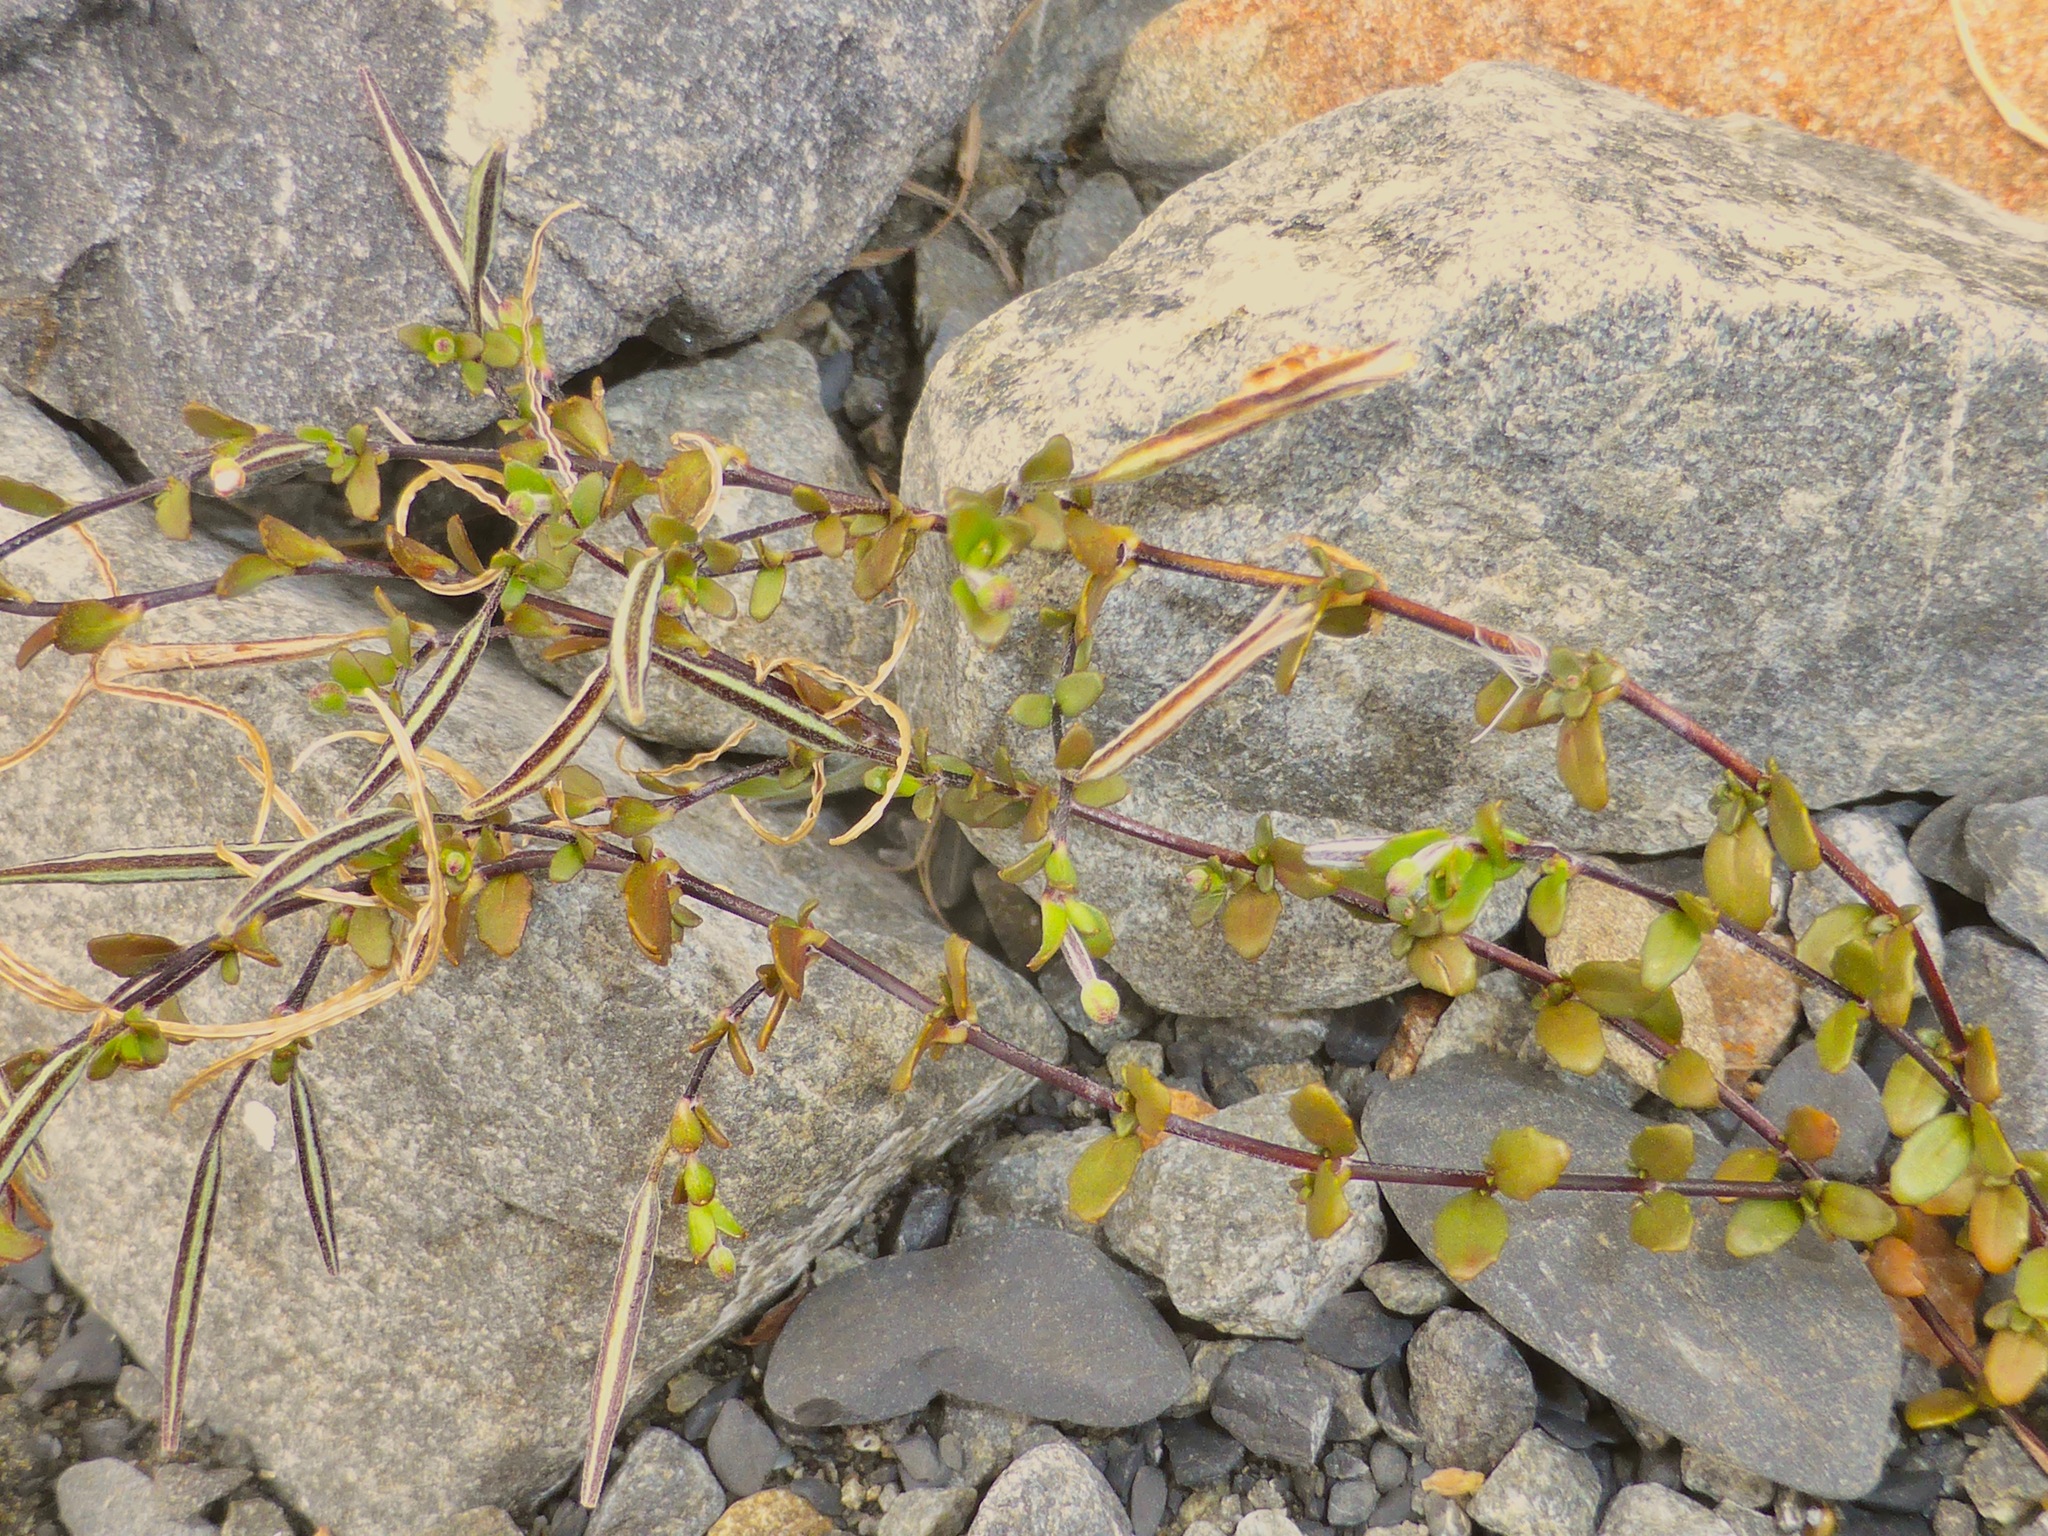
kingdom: Plantae
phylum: Tracheophyta
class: Magnoliopsida
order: Myrtales
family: Onagraceae
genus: Epilobium
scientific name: Epilobium microphyllum
